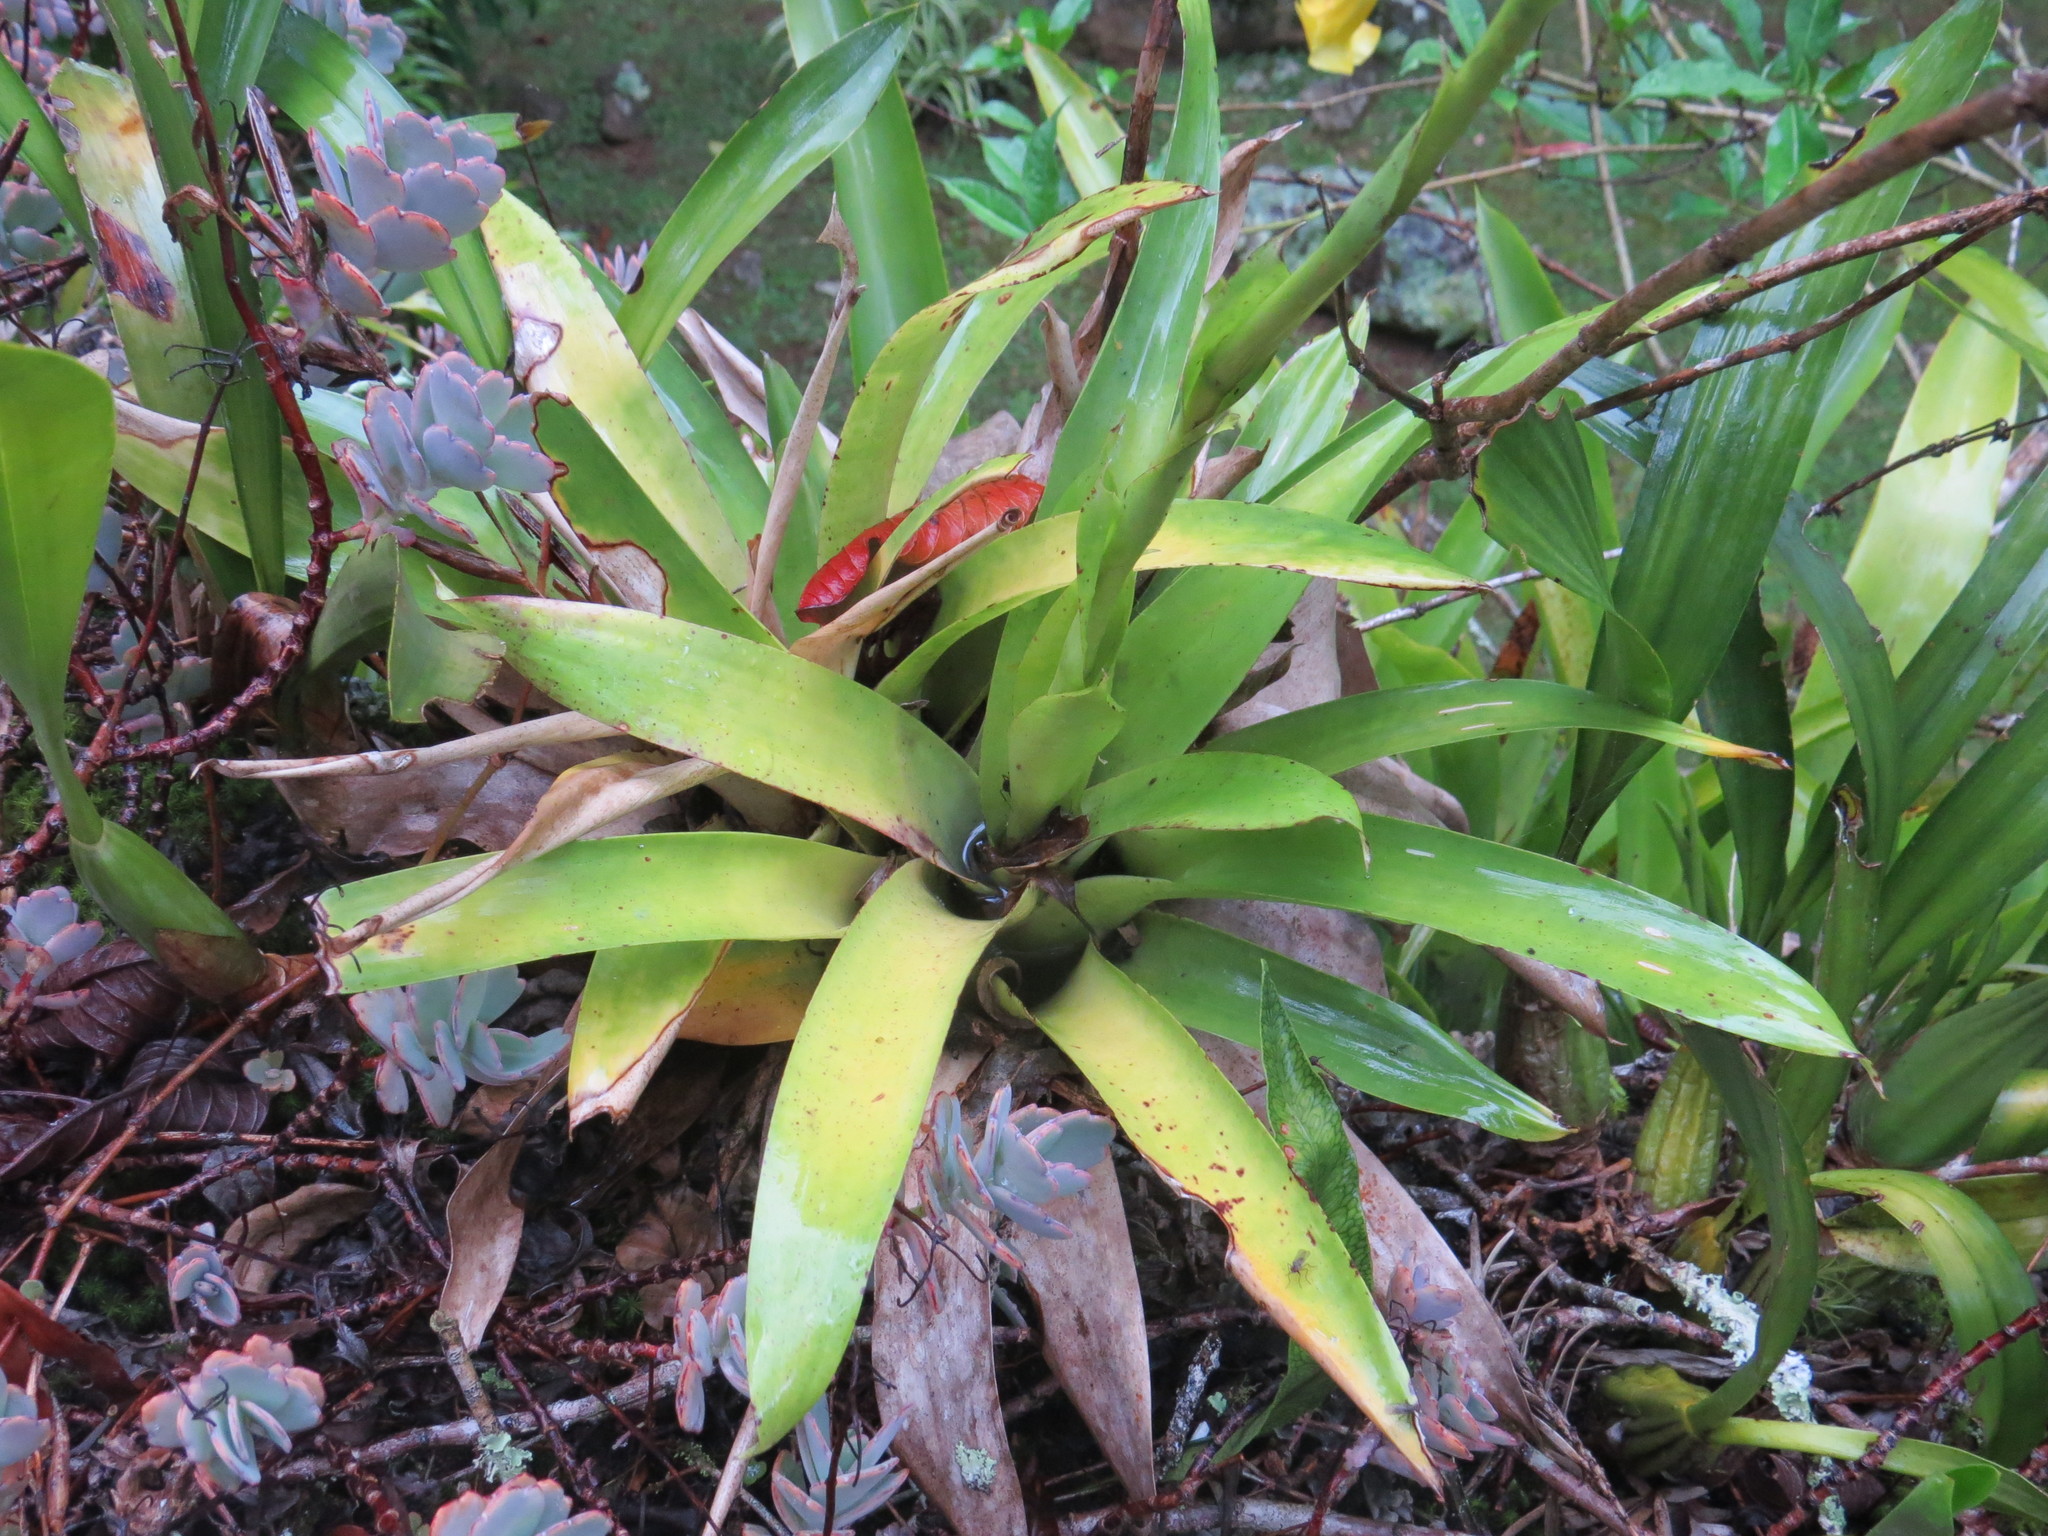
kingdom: Plantae
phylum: Tracheophyta
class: Liliopsida
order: Poales
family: Bromeliaceae
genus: Vriesea
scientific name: Vriesea procera
